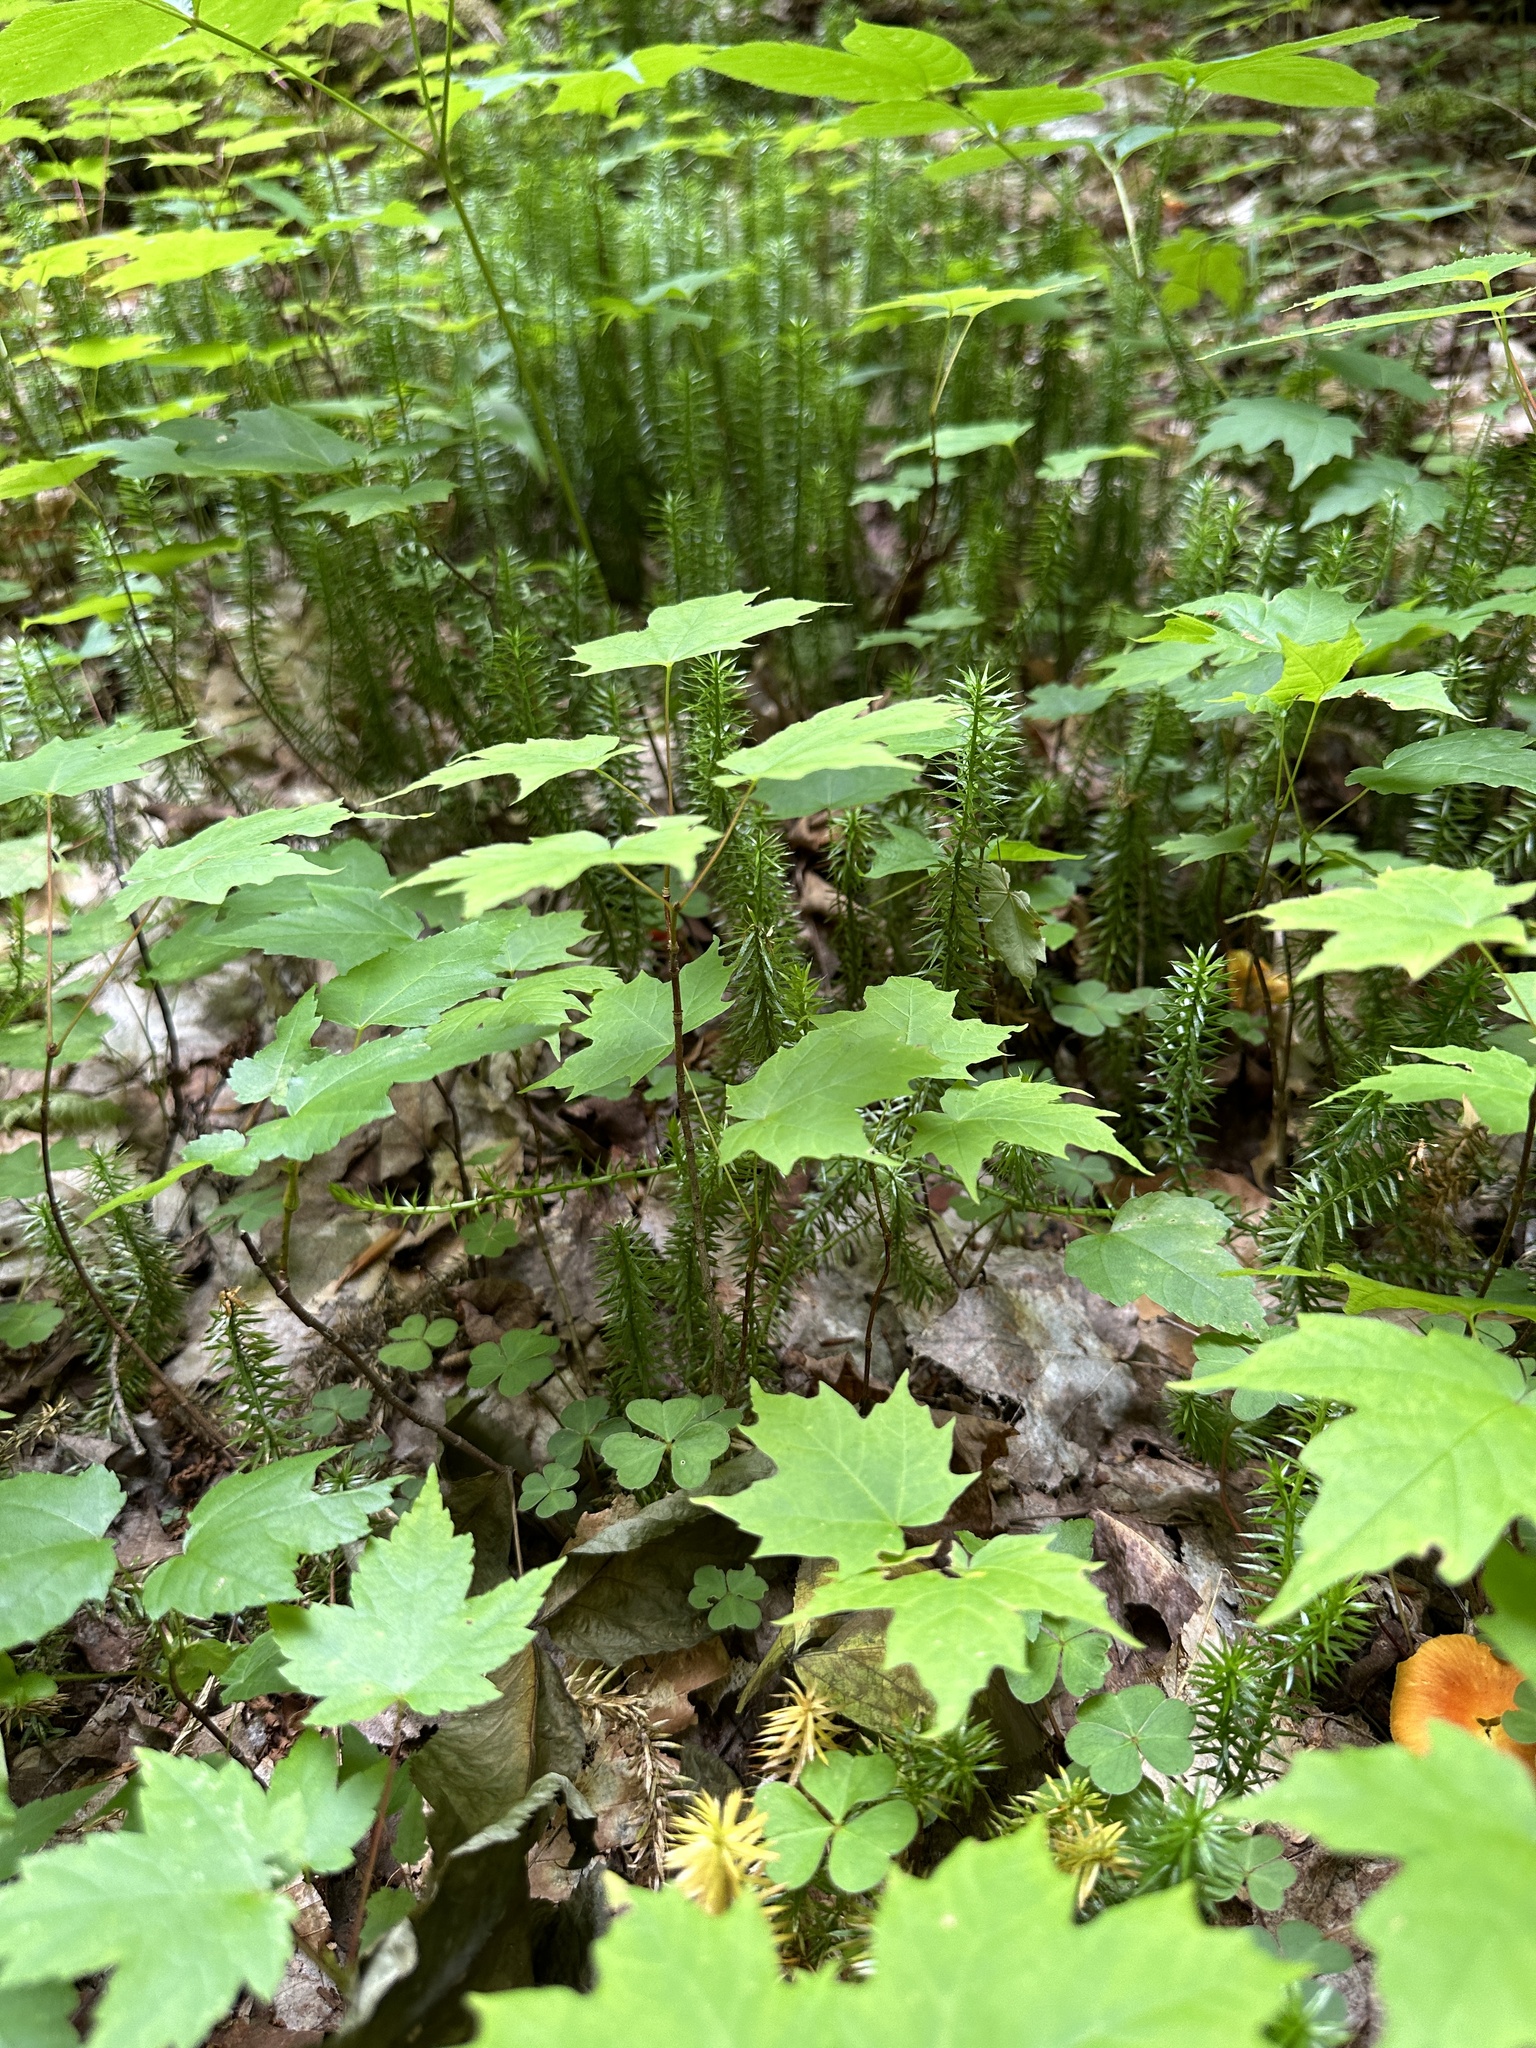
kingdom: Plantae
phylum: Tracheophyta
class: Lycopodiopsida
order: Lycopodiales
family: Lycopodiaceae
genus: Spinulum
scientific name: Spinulum annotinum
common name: Interrupted club-moss
